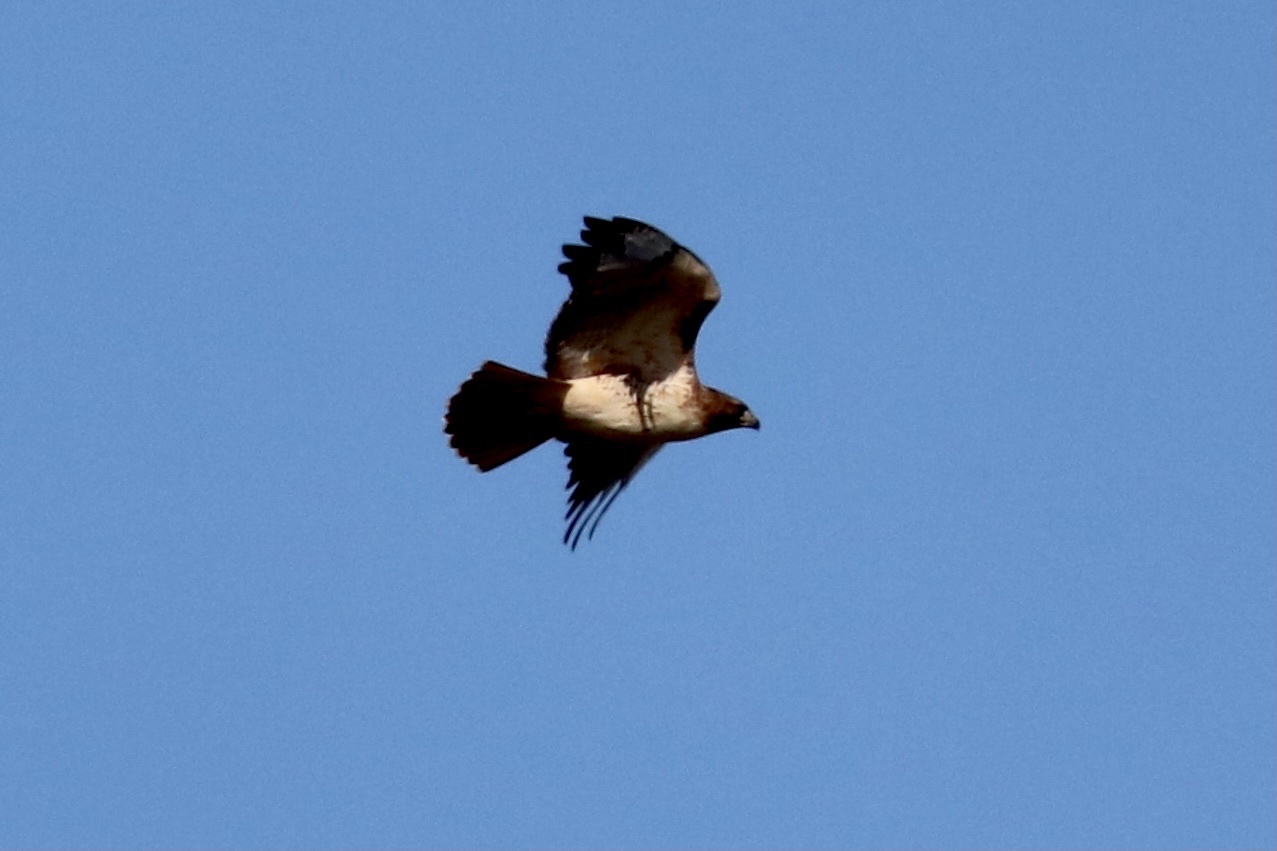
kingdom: Animalia
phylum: Chordata
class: Aves
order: Accipitriformes
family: Accipitridae
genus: Buteo
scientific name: Buteo jamaicensis
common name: Red-tailed hawk
